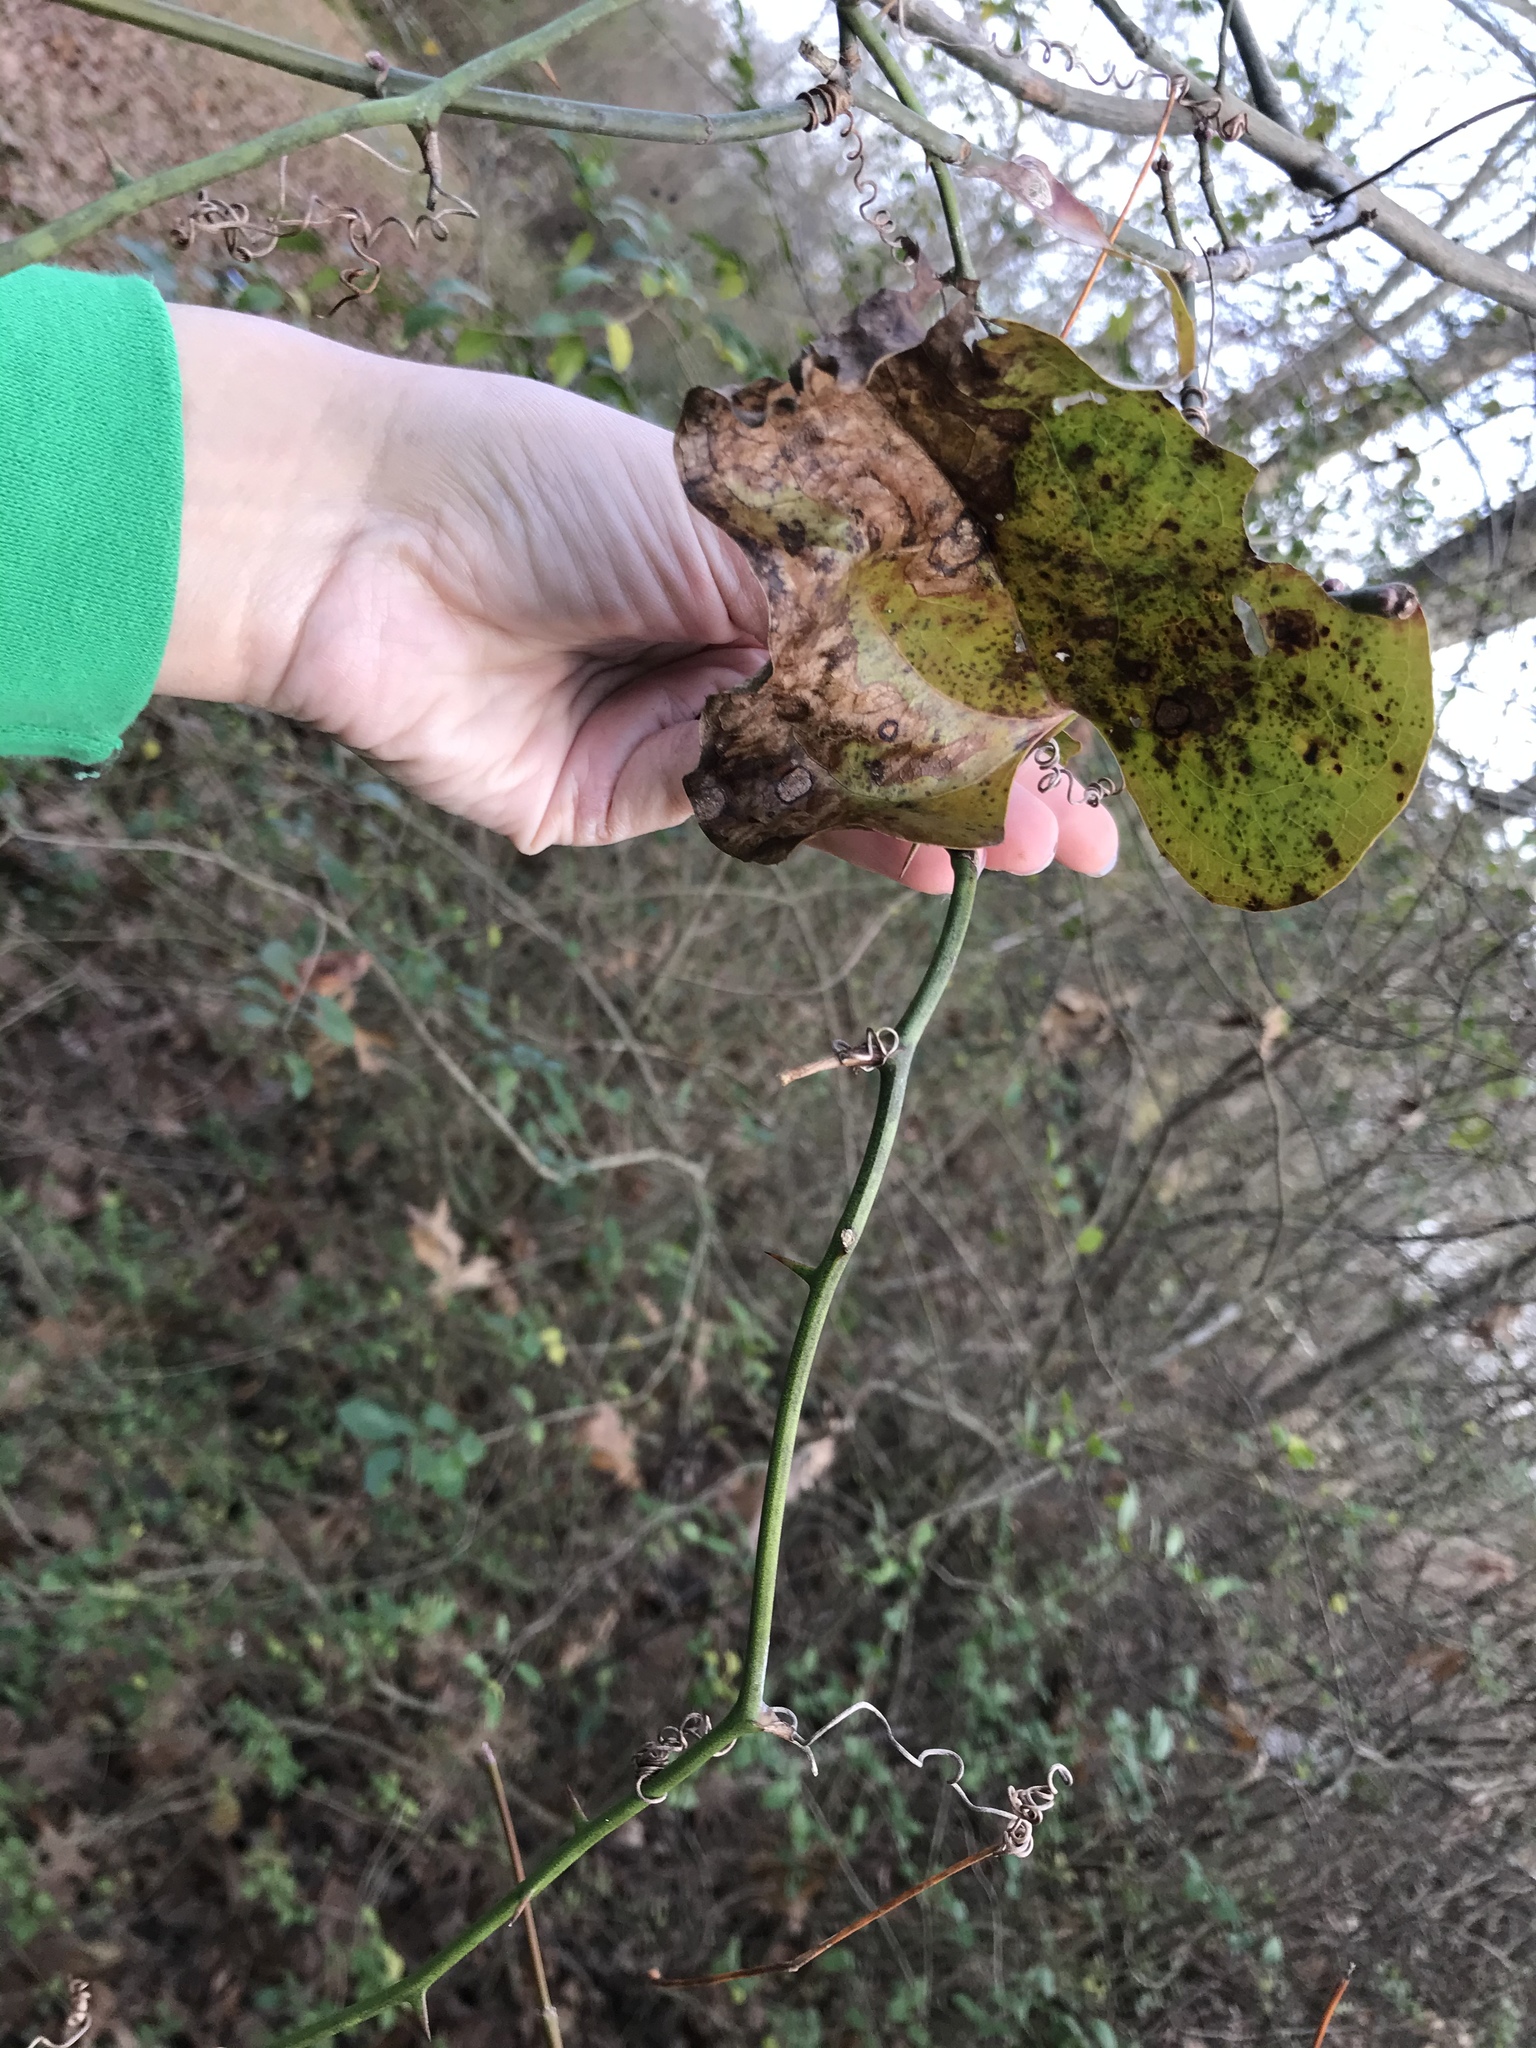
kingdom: Plantae
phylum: Tracheophyta
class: Liliopsida
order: Liliales
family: Smilacaceae
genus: Smilax
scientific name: Smilax rotundifolia
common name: Bullbriar
